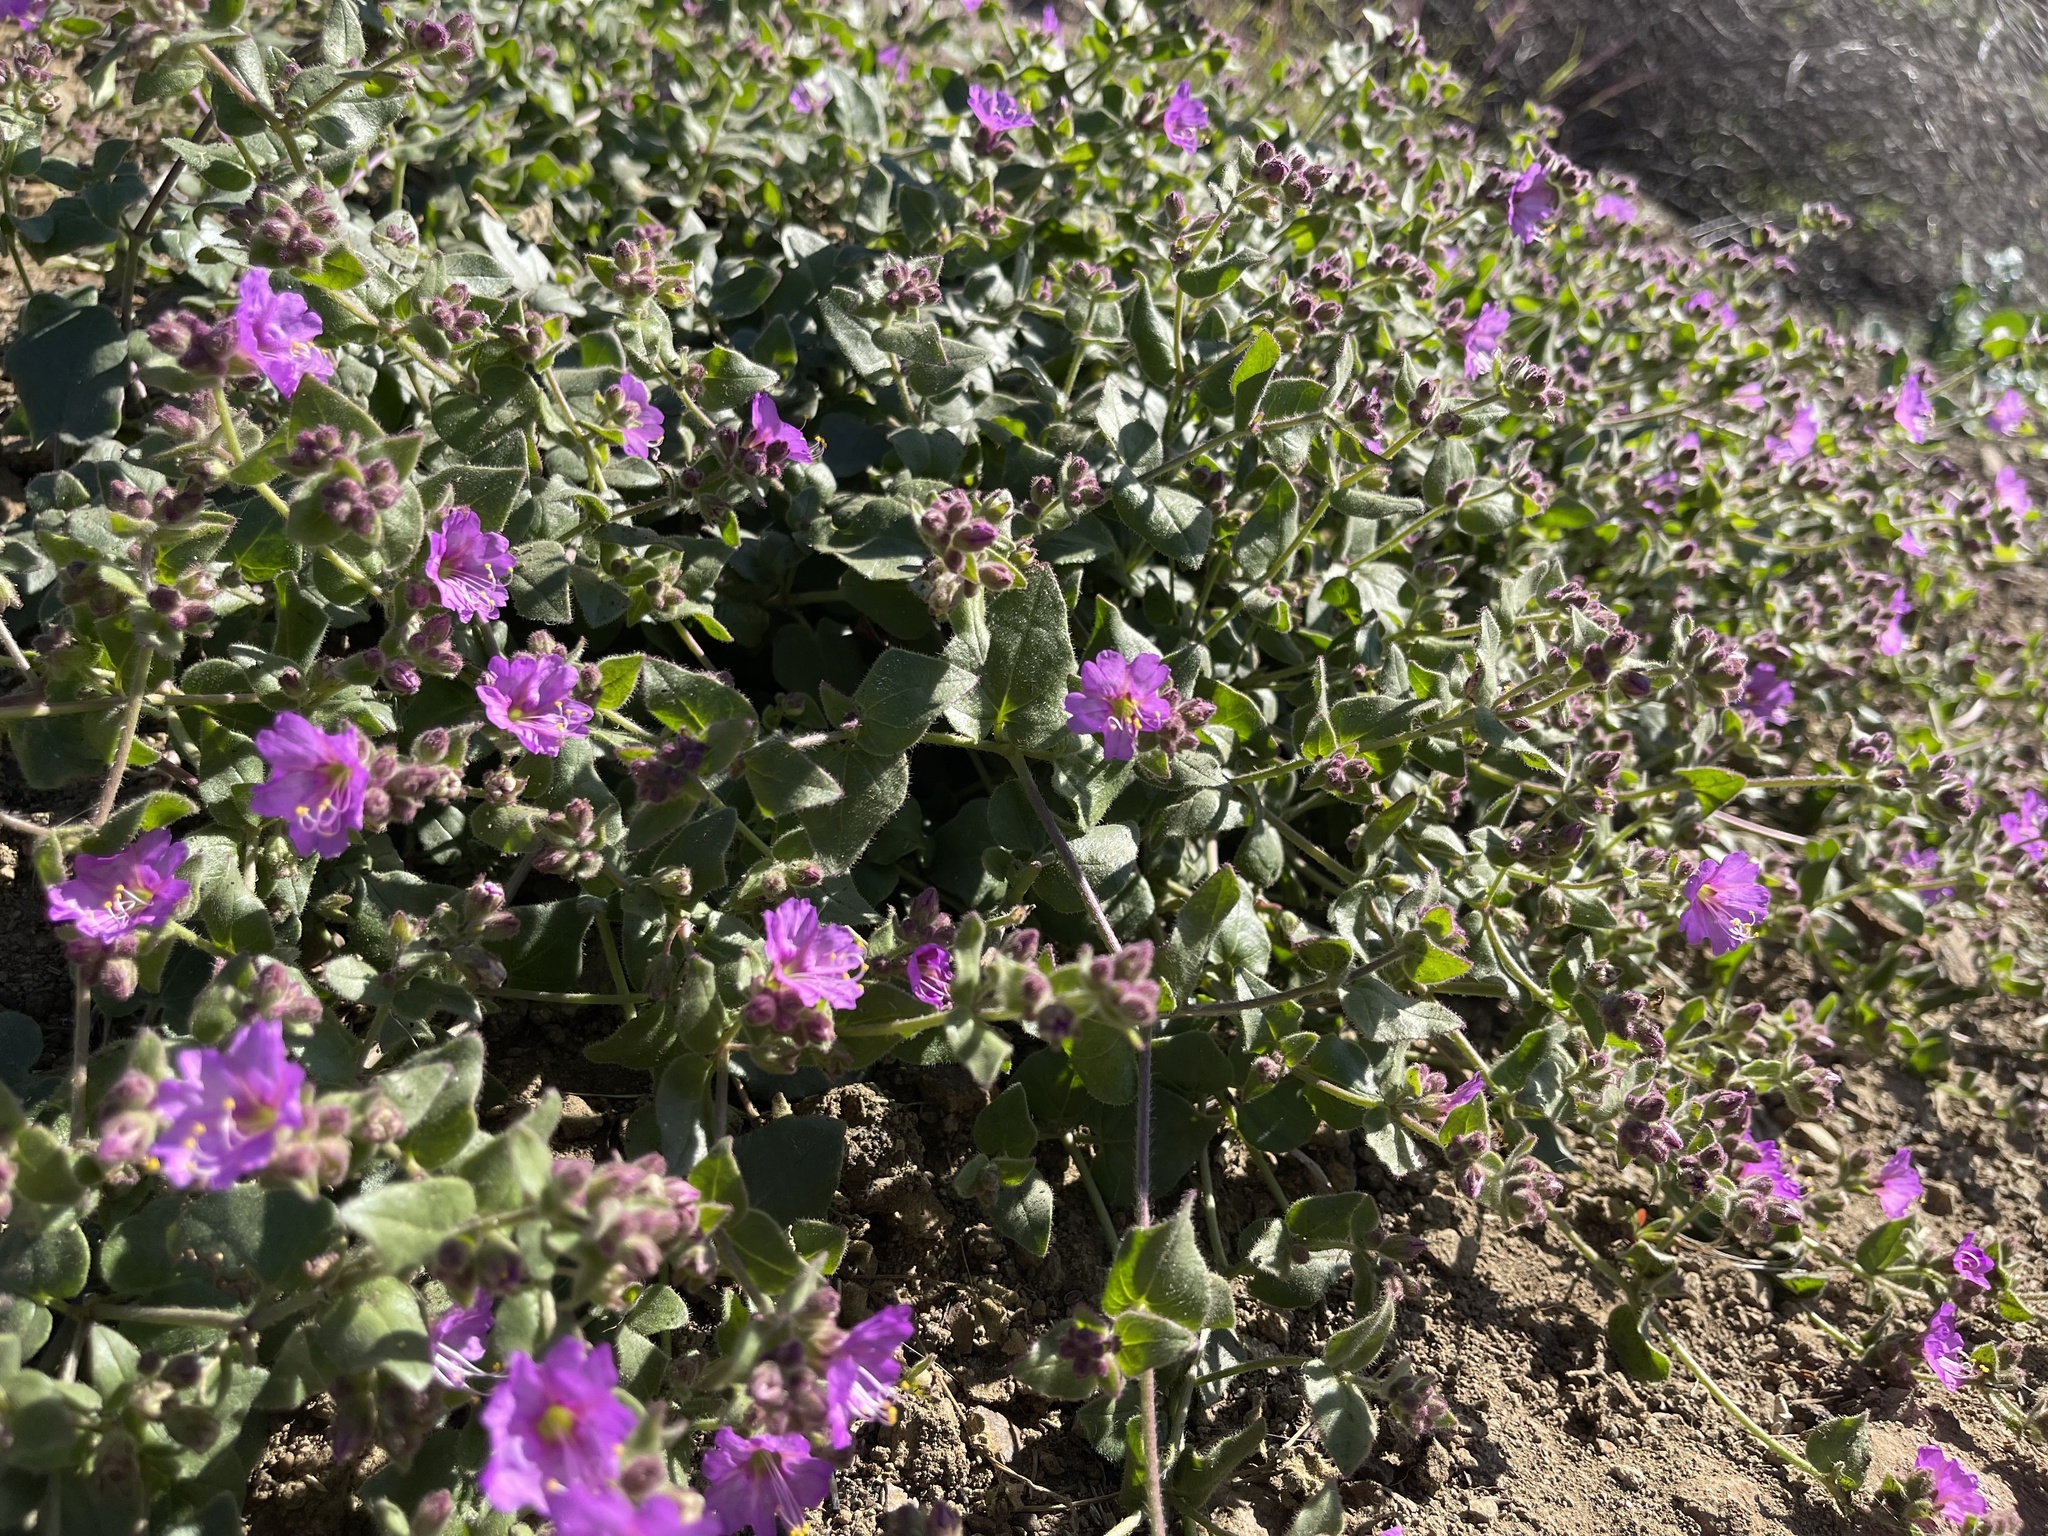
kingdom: Plantae
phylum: Tracheophyta
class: Magnoliopsida
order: Caryophyllales
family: Nyctaginaceae
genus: Mirabilis
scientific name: Mirabilis laevis
